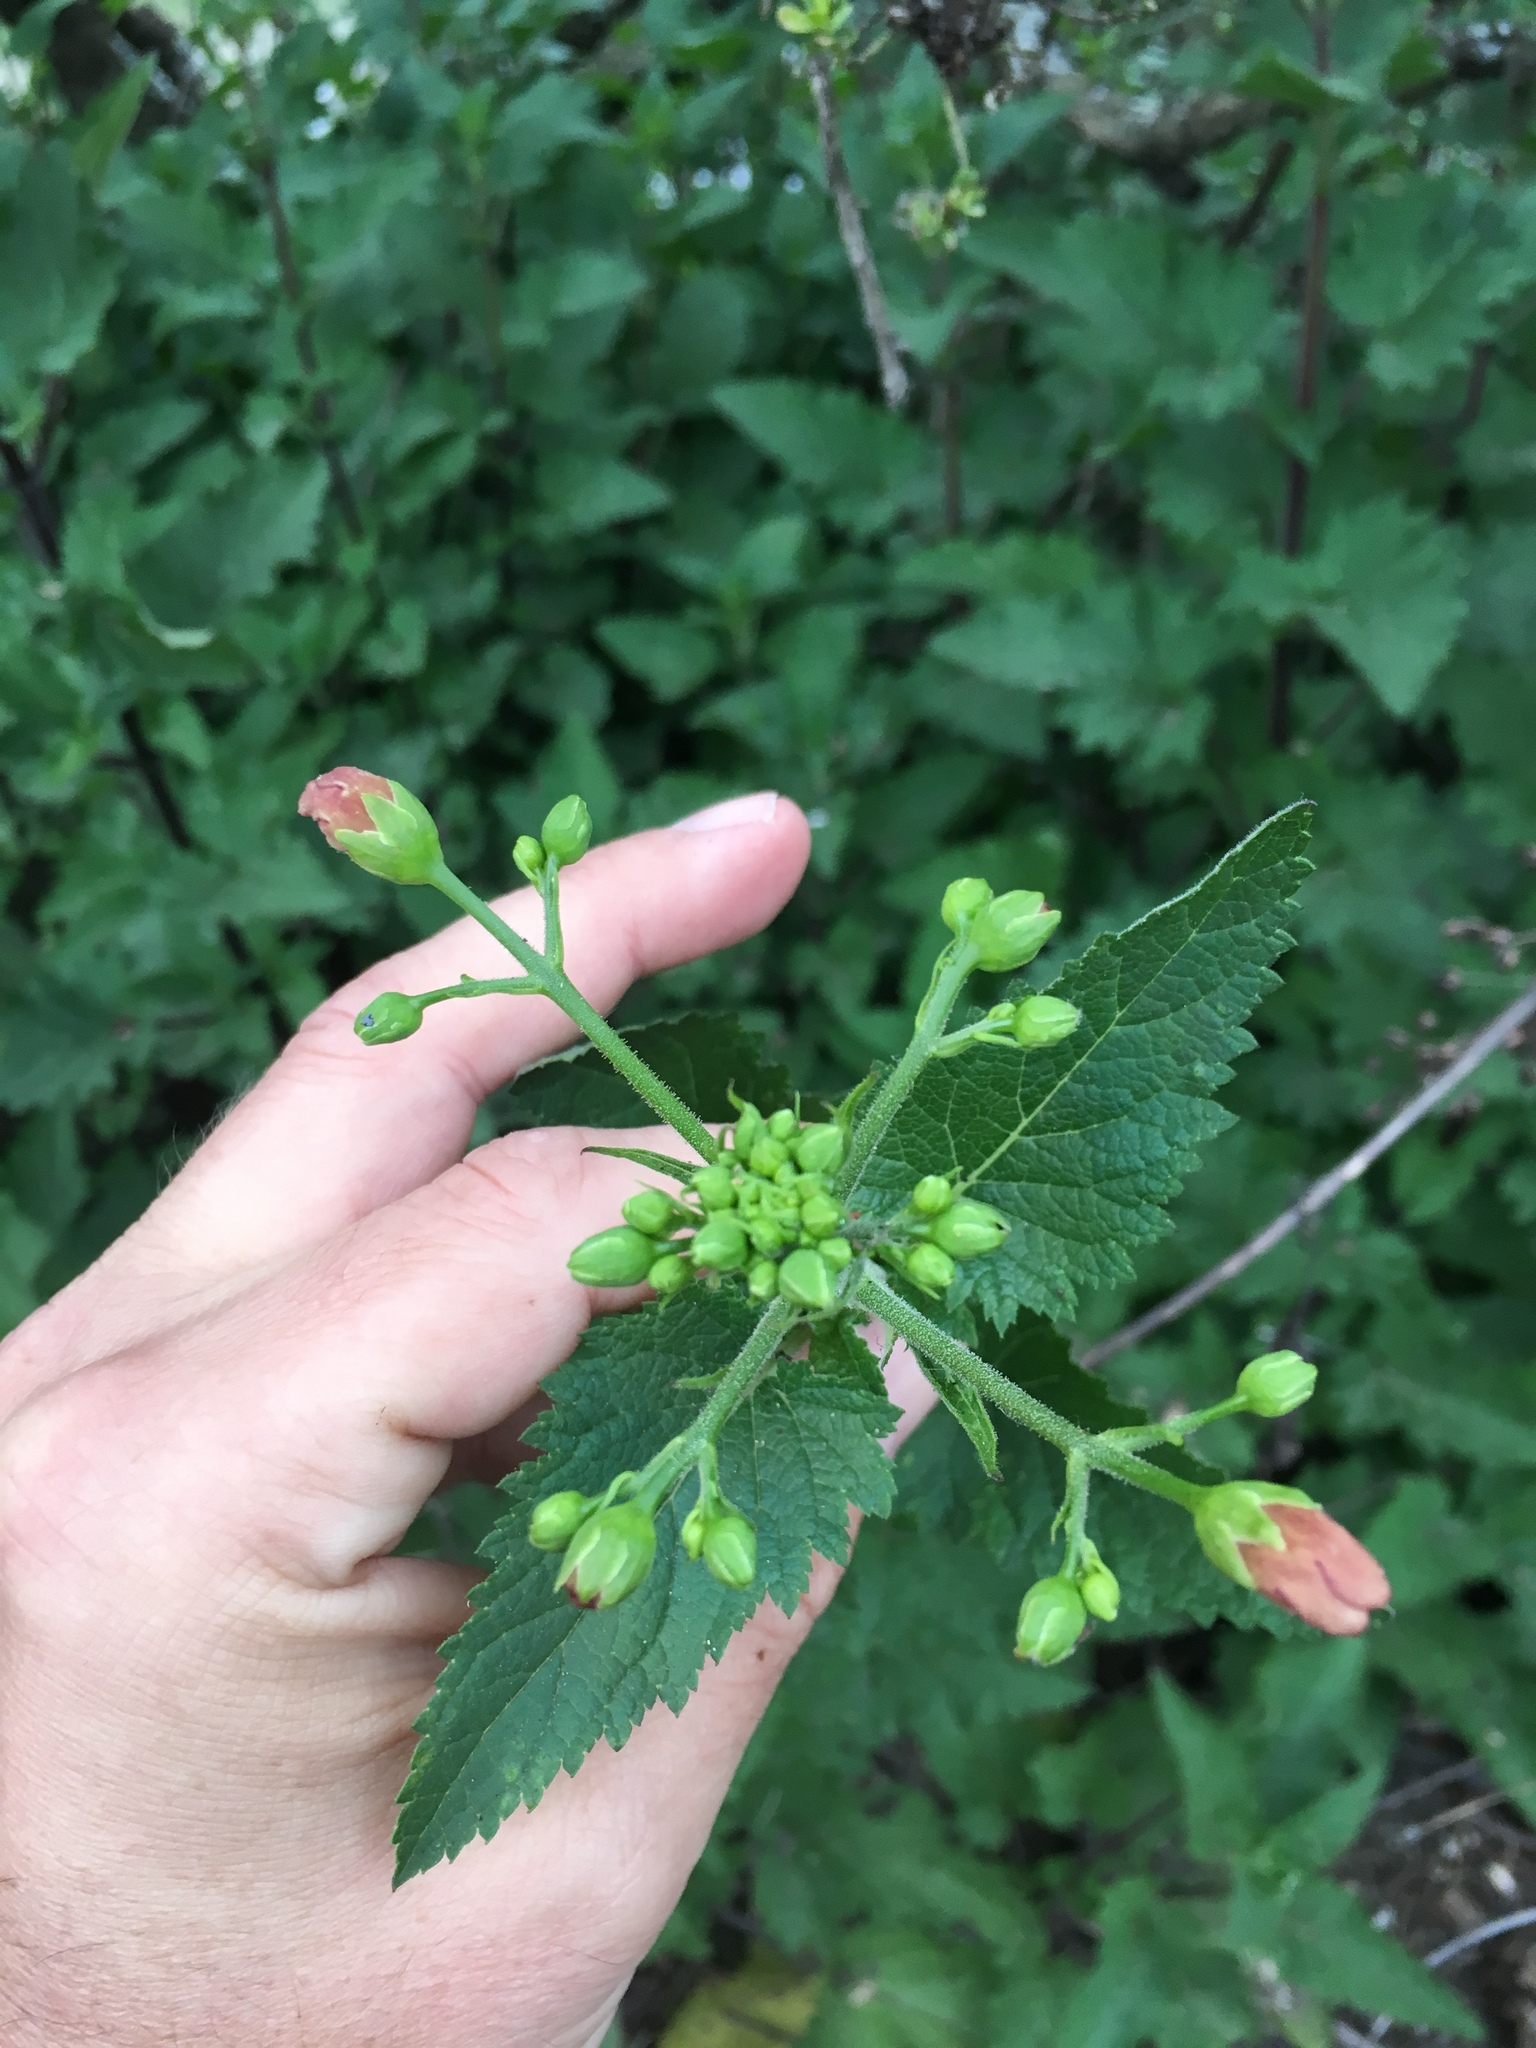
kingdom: Plantae
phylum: Tracheophyta
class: Magnoliopsida
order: Lamiales
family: Scrophulariaceae
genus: Scrophularia
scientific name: Scrophularia californica
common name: California figwort
